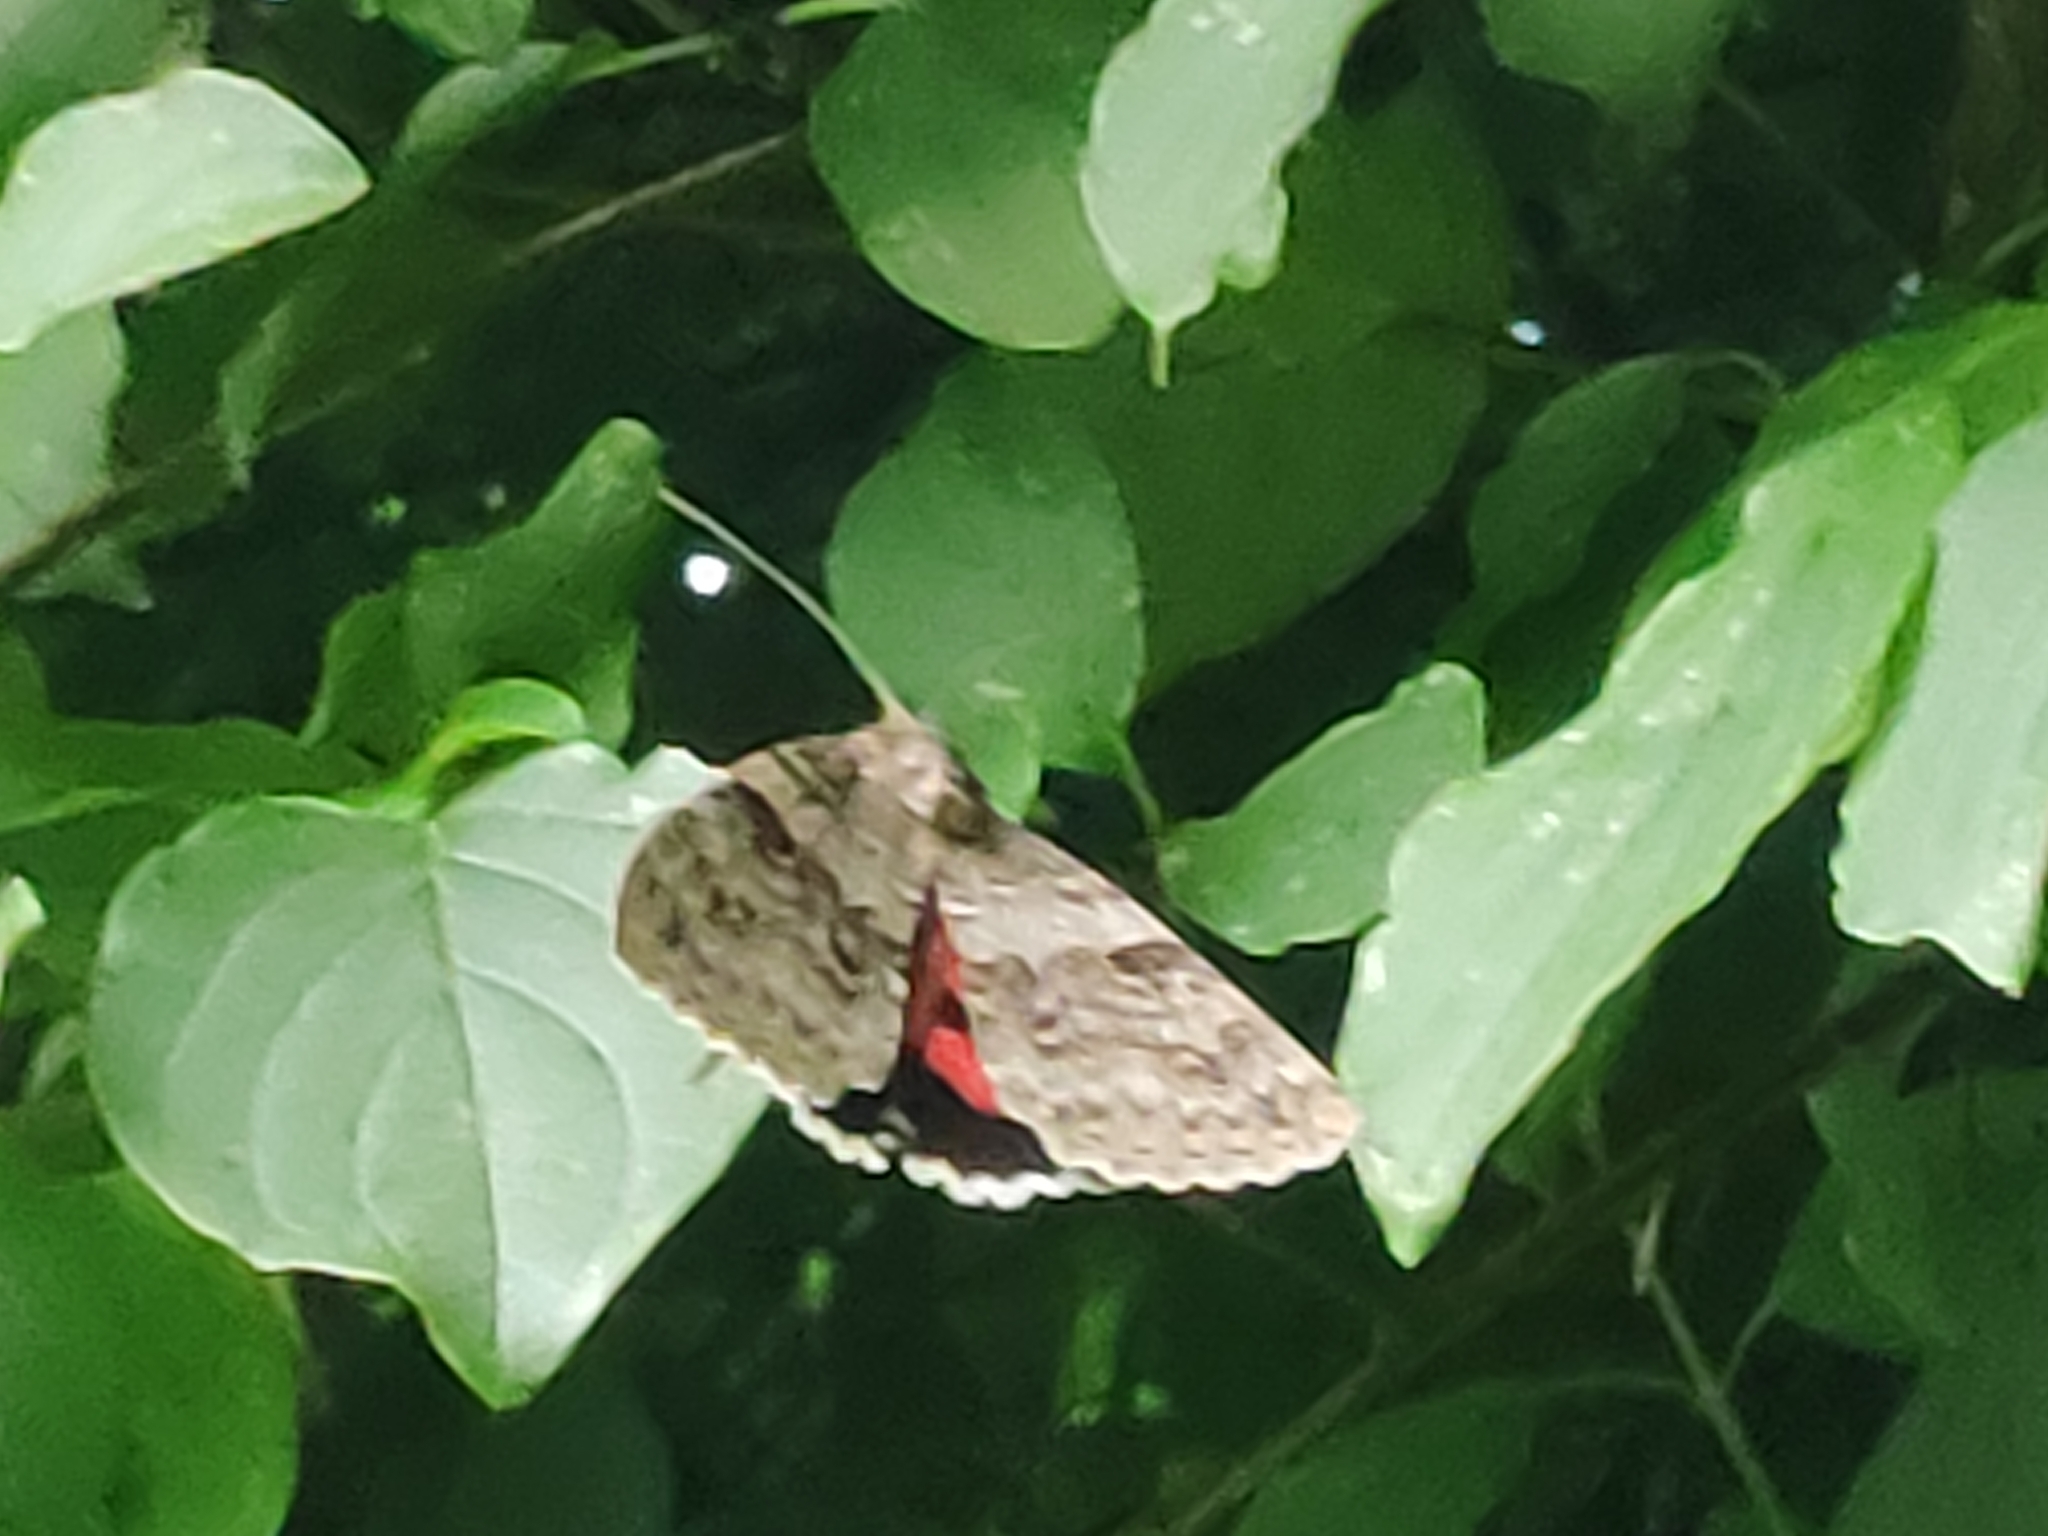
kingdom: Animalia
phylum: Arthropoda
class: Insecta
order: Lepidoptera
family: Erebidae
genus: Catocala
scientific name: Catocala nupta
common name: Red underwing
